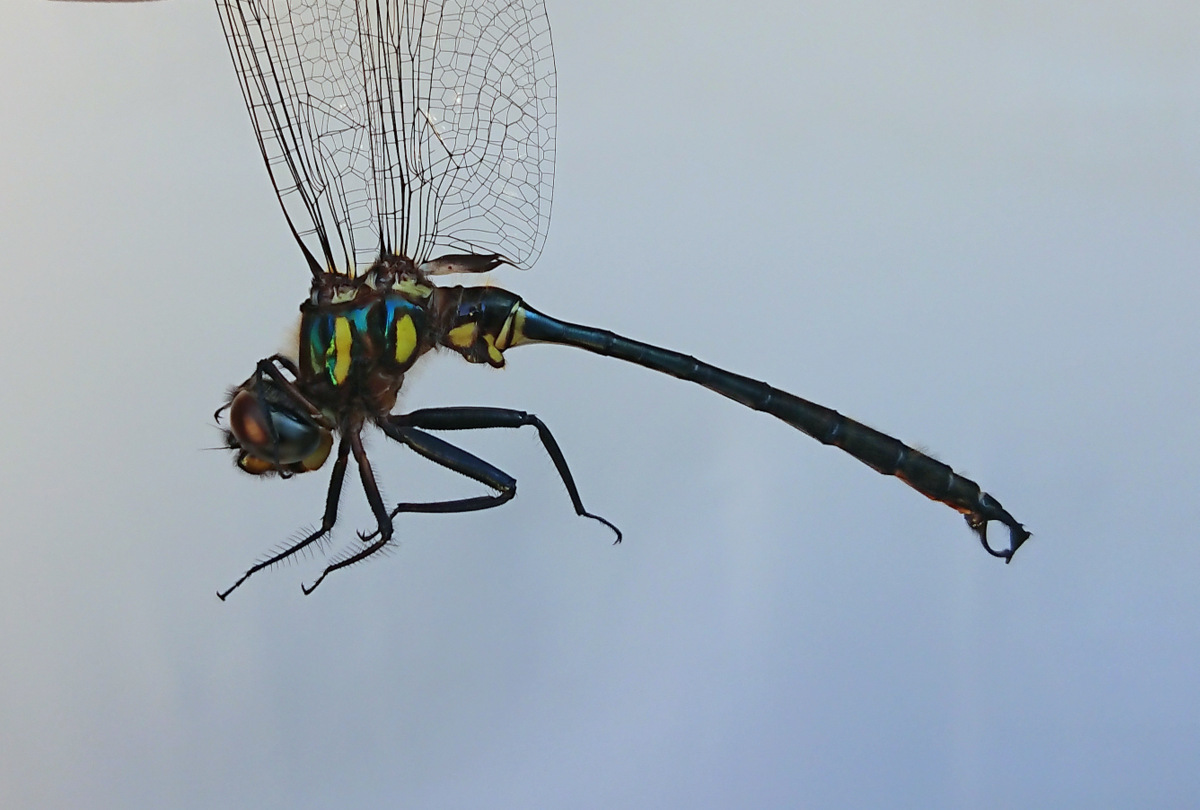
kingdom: Animalia
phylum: Arthropoda
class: Insecta
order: Odonata
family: Corduliidae
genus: Somatochlora
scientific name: Somatochlora tenebrosa
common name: Clamp-tipped emerald
